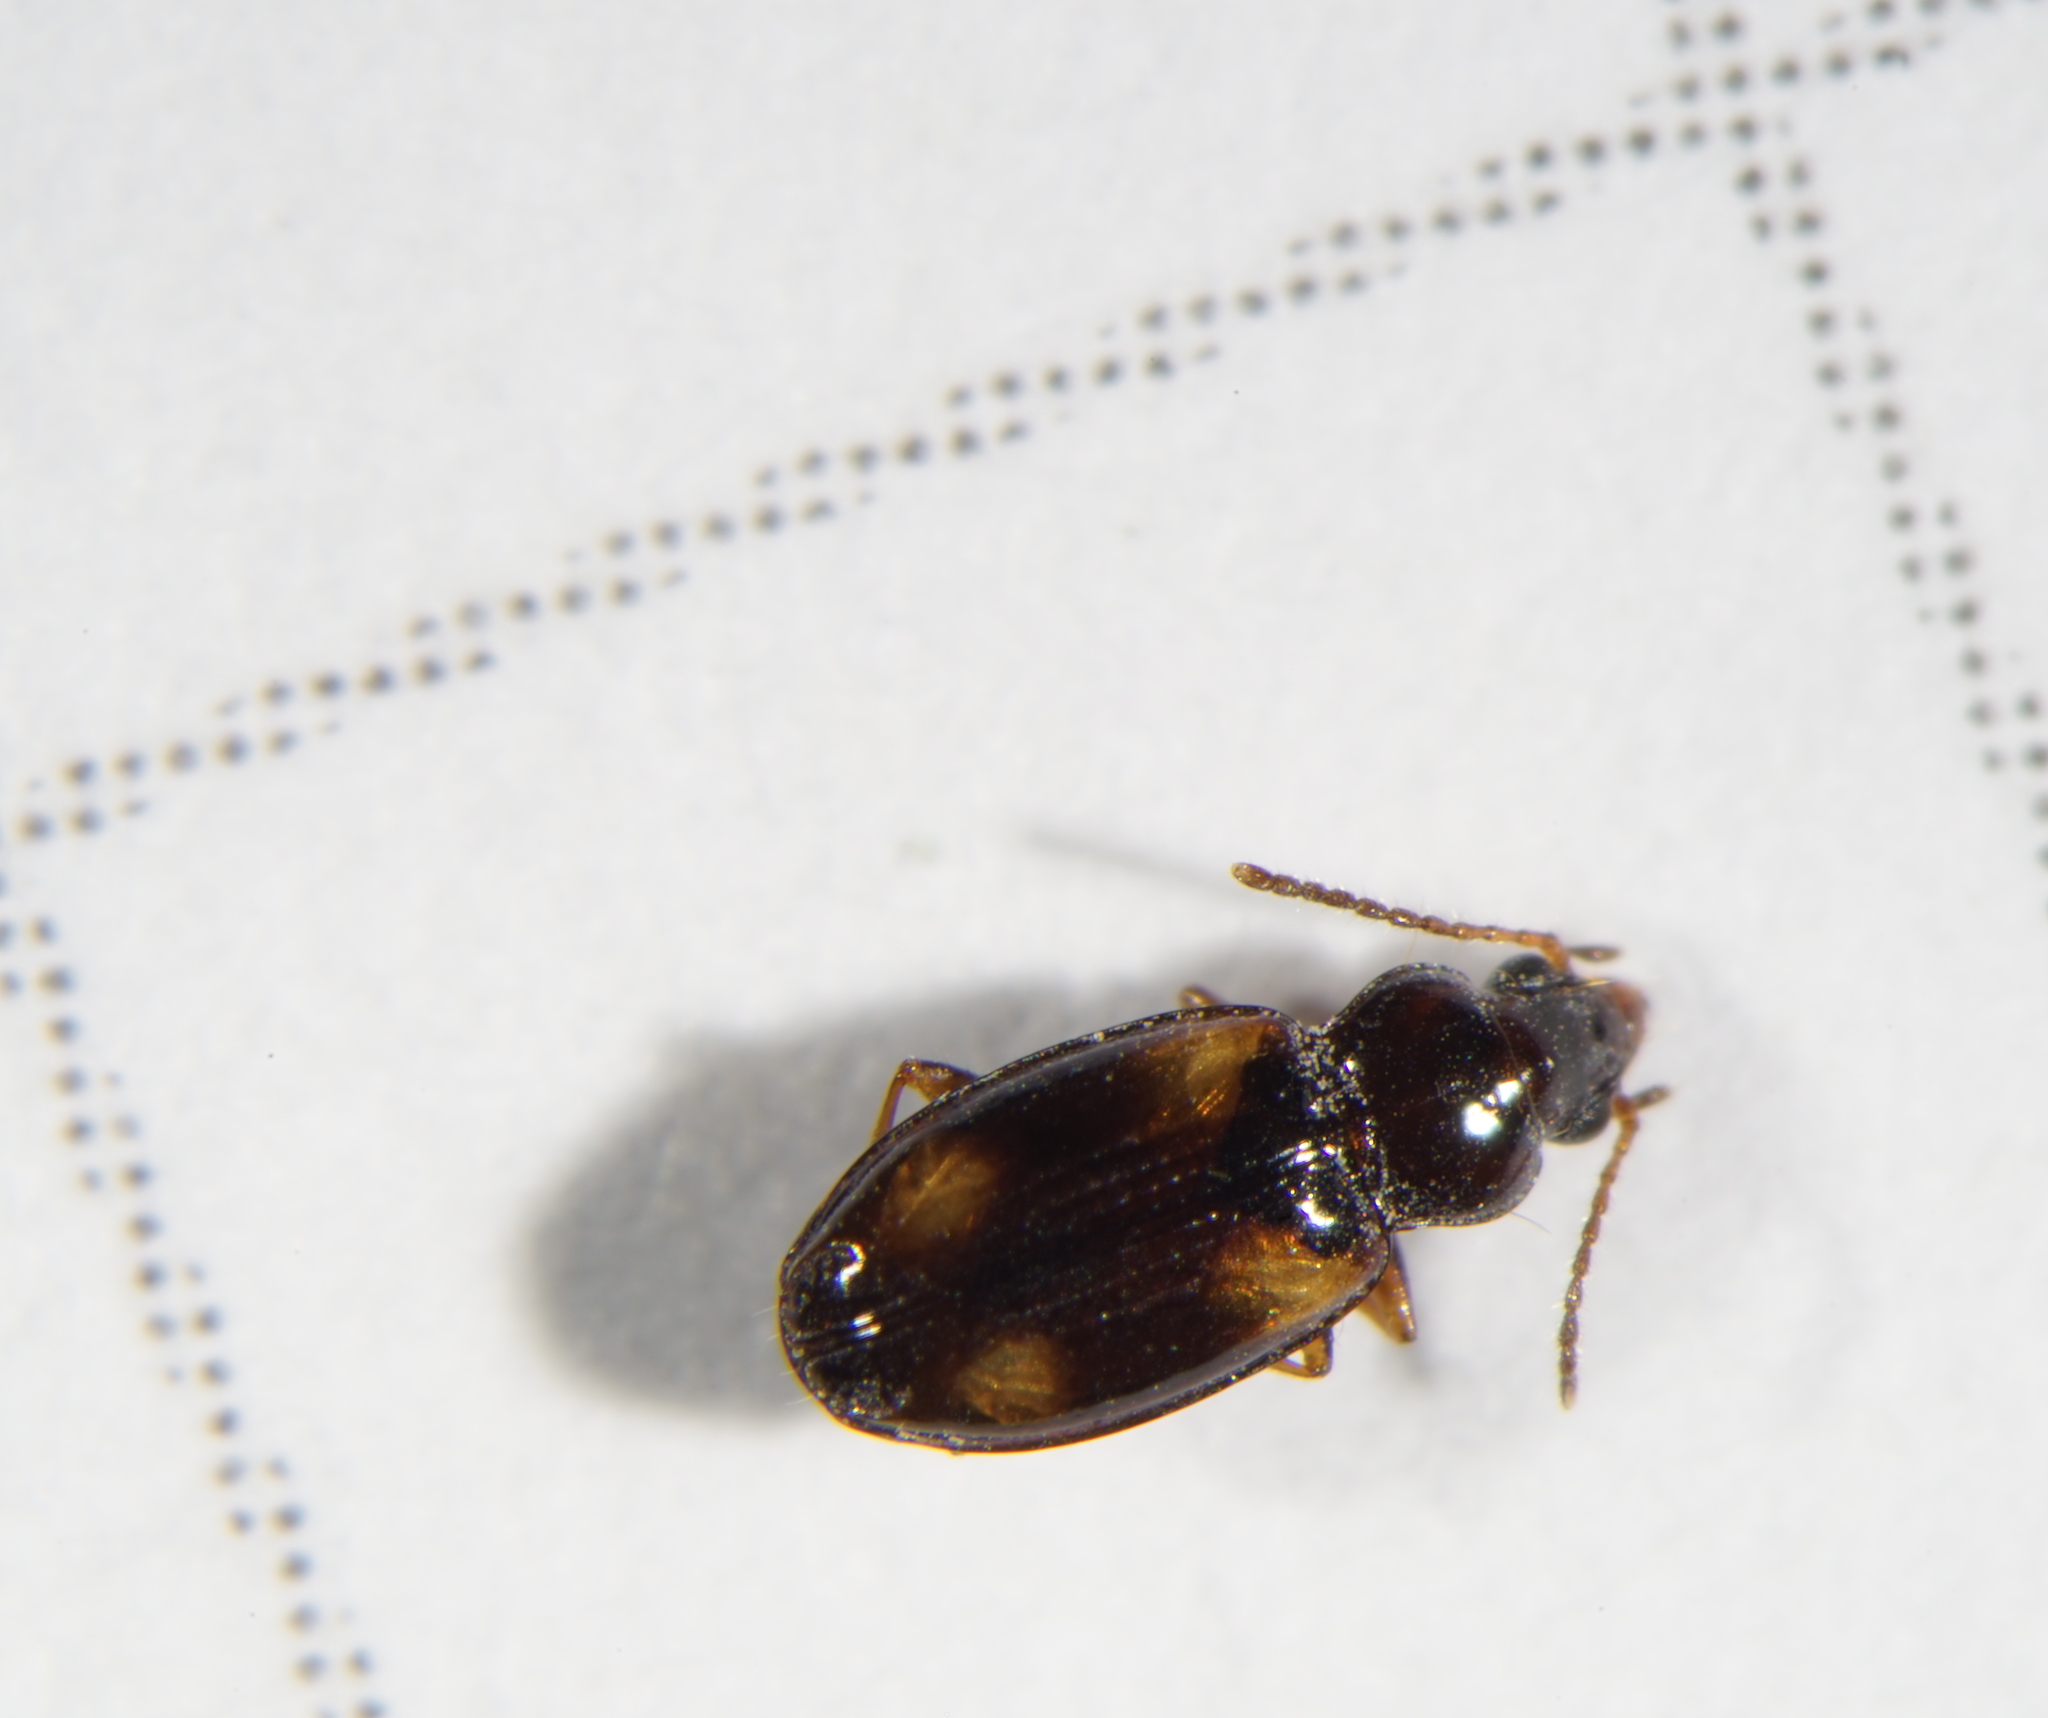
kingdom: Animalia
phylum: Arthropoda
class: Insecta
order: Coleoptera
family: Carabidae
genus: Elaphropus
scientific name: Elaphropus diabrachys
